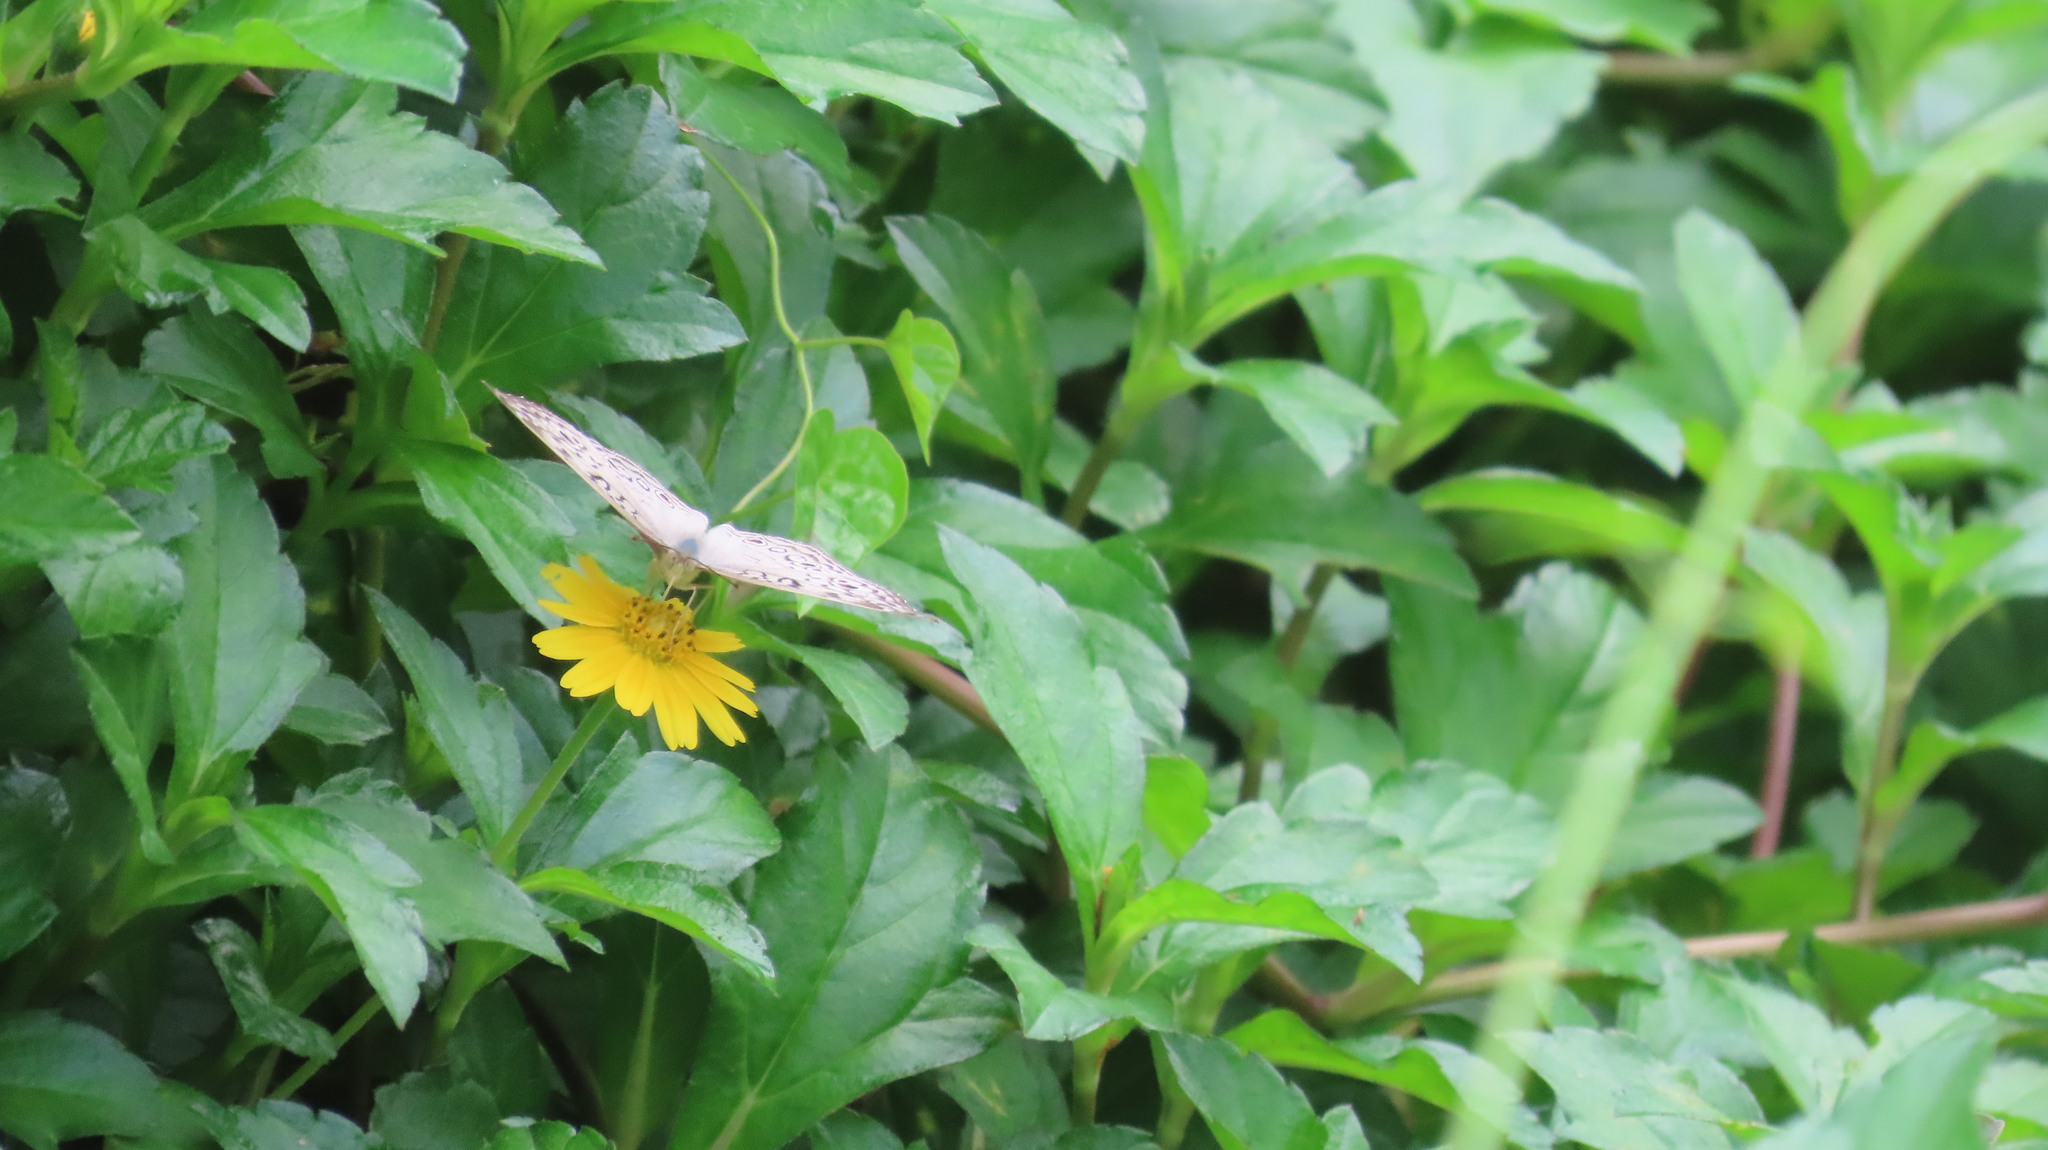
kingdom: Animalia
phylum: Arthropoda
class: Insecta
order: Lepidoptera
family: Nymphalidae
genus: Junonia
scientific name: Junonia atlites
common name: Grey pansy
